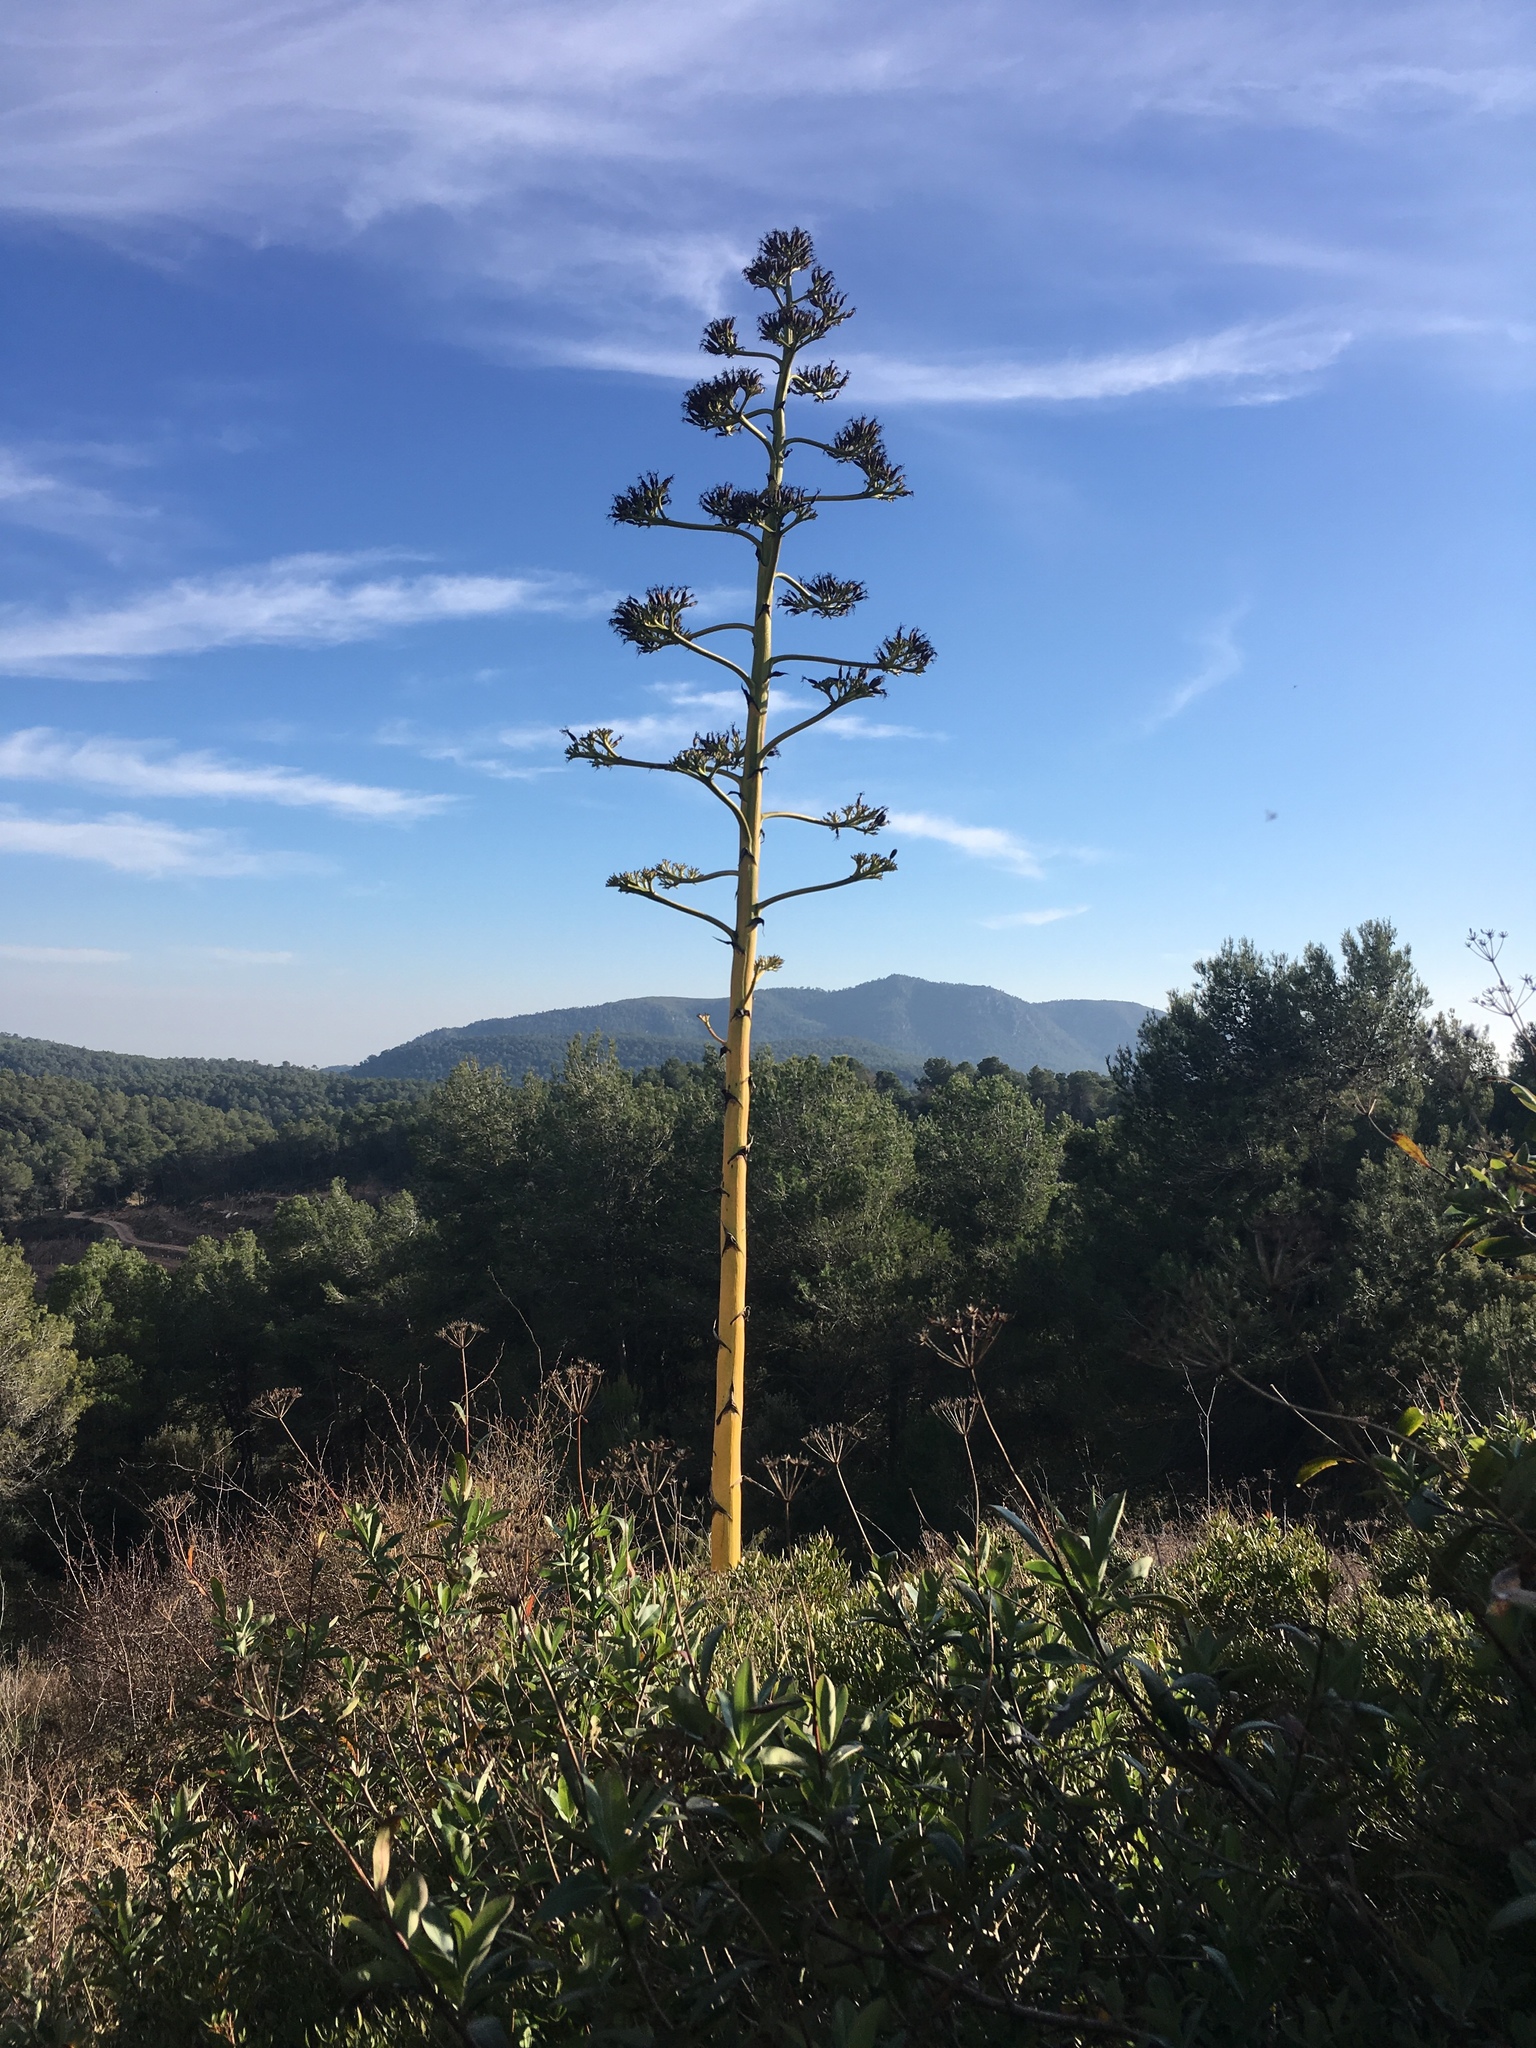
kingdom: Plantae
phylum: Tracheophyta
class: Liliopsida
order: Asparagales
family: Asparagaceae
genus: Agave
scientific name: Agave americana
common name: Centuryplant
